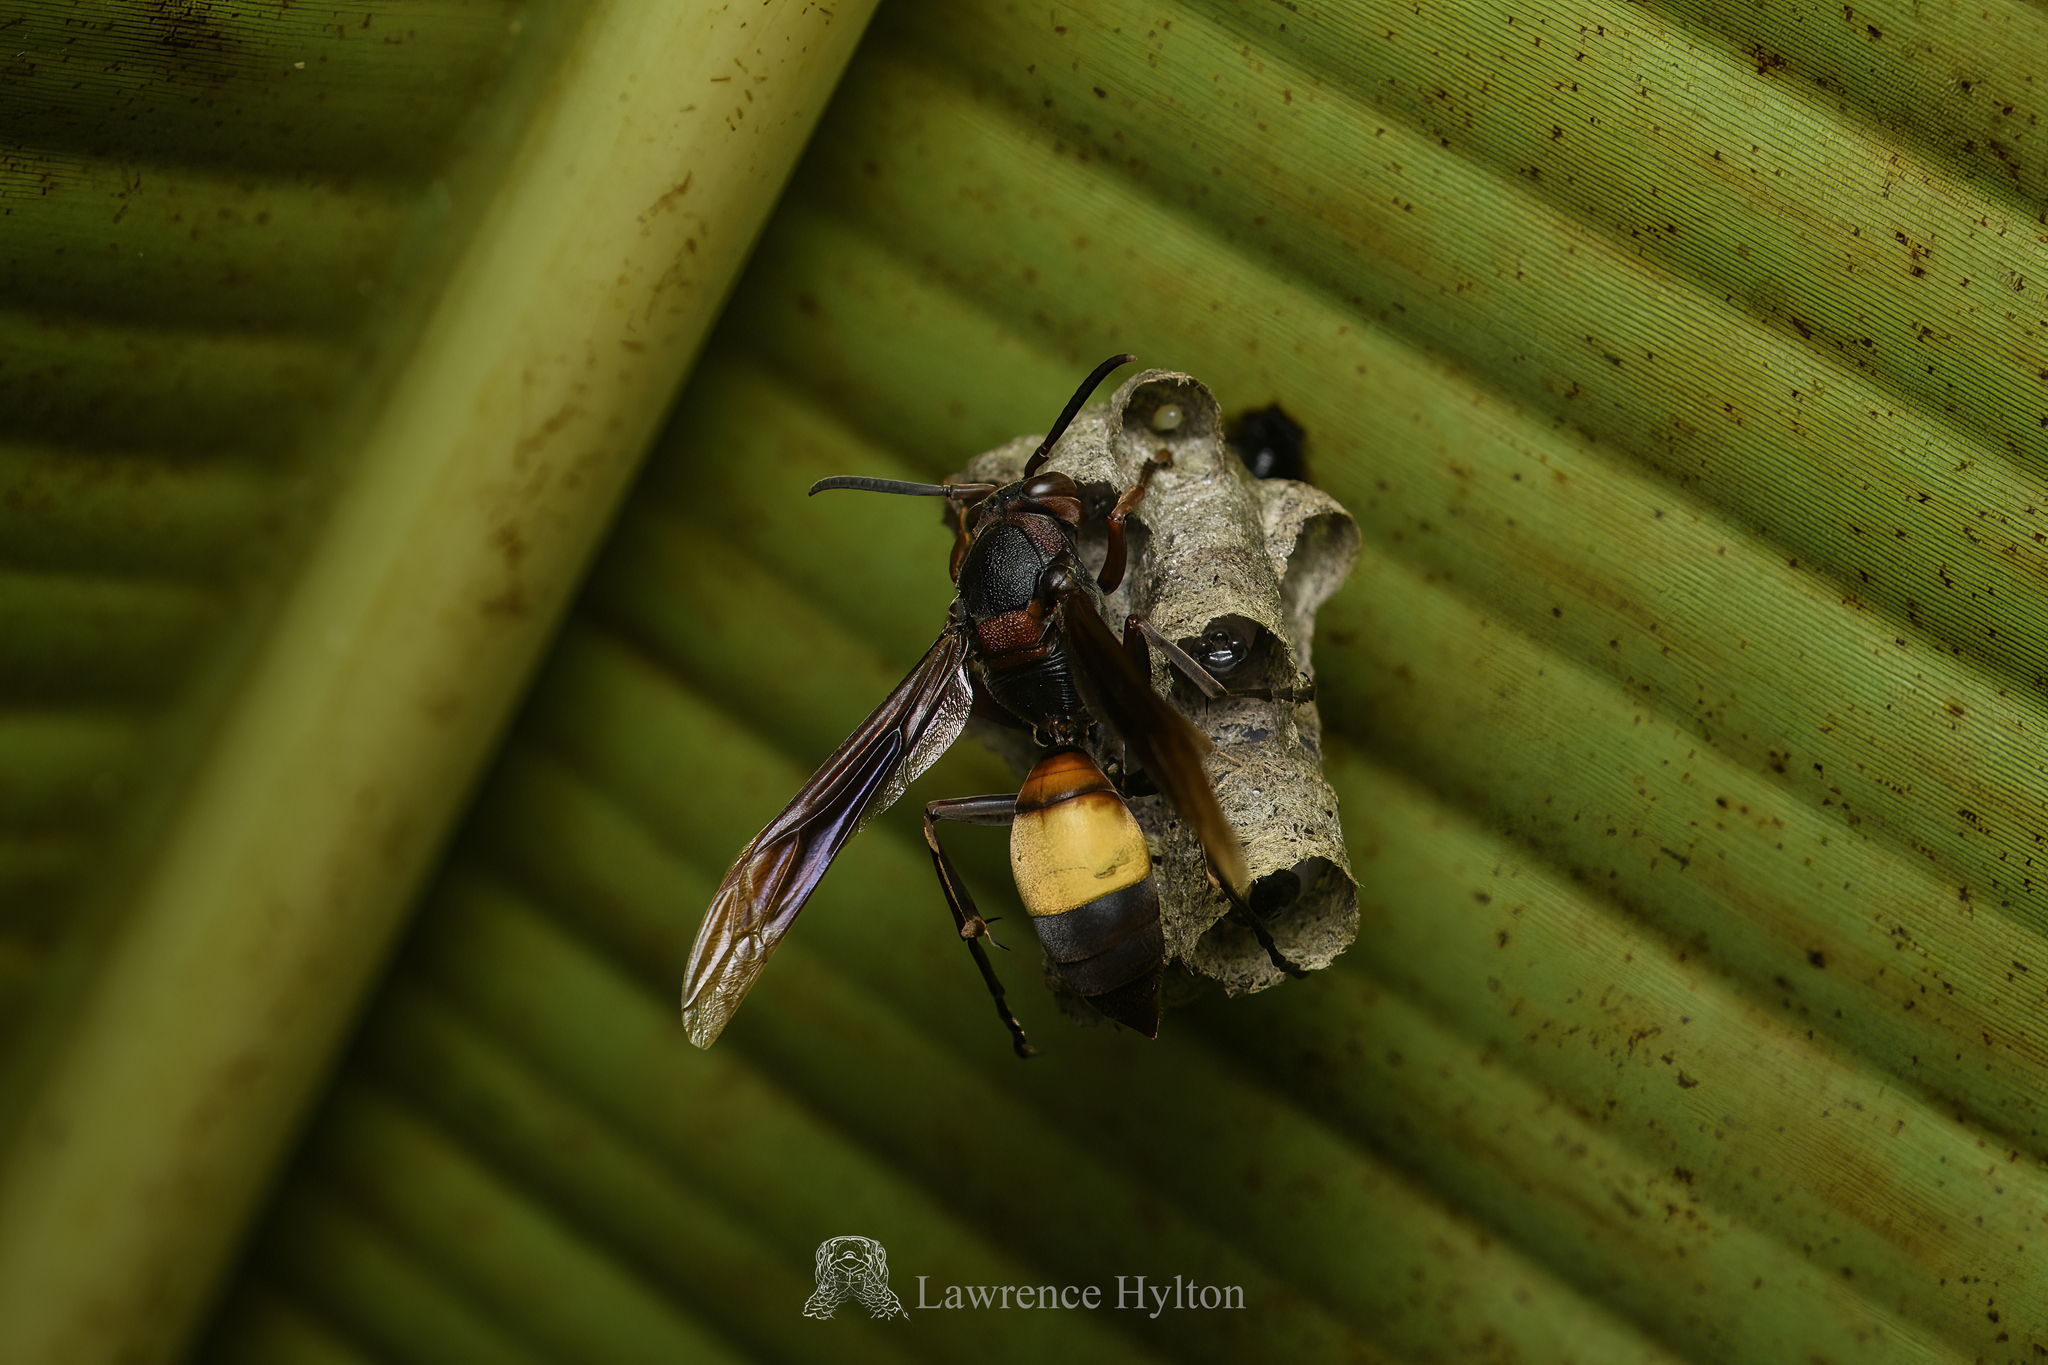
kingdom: Animalia
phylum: Arthropoda
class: Insecta
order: Hymenoptera
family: Eumenidae
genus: Polistes
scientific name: Polistes sagittarius
